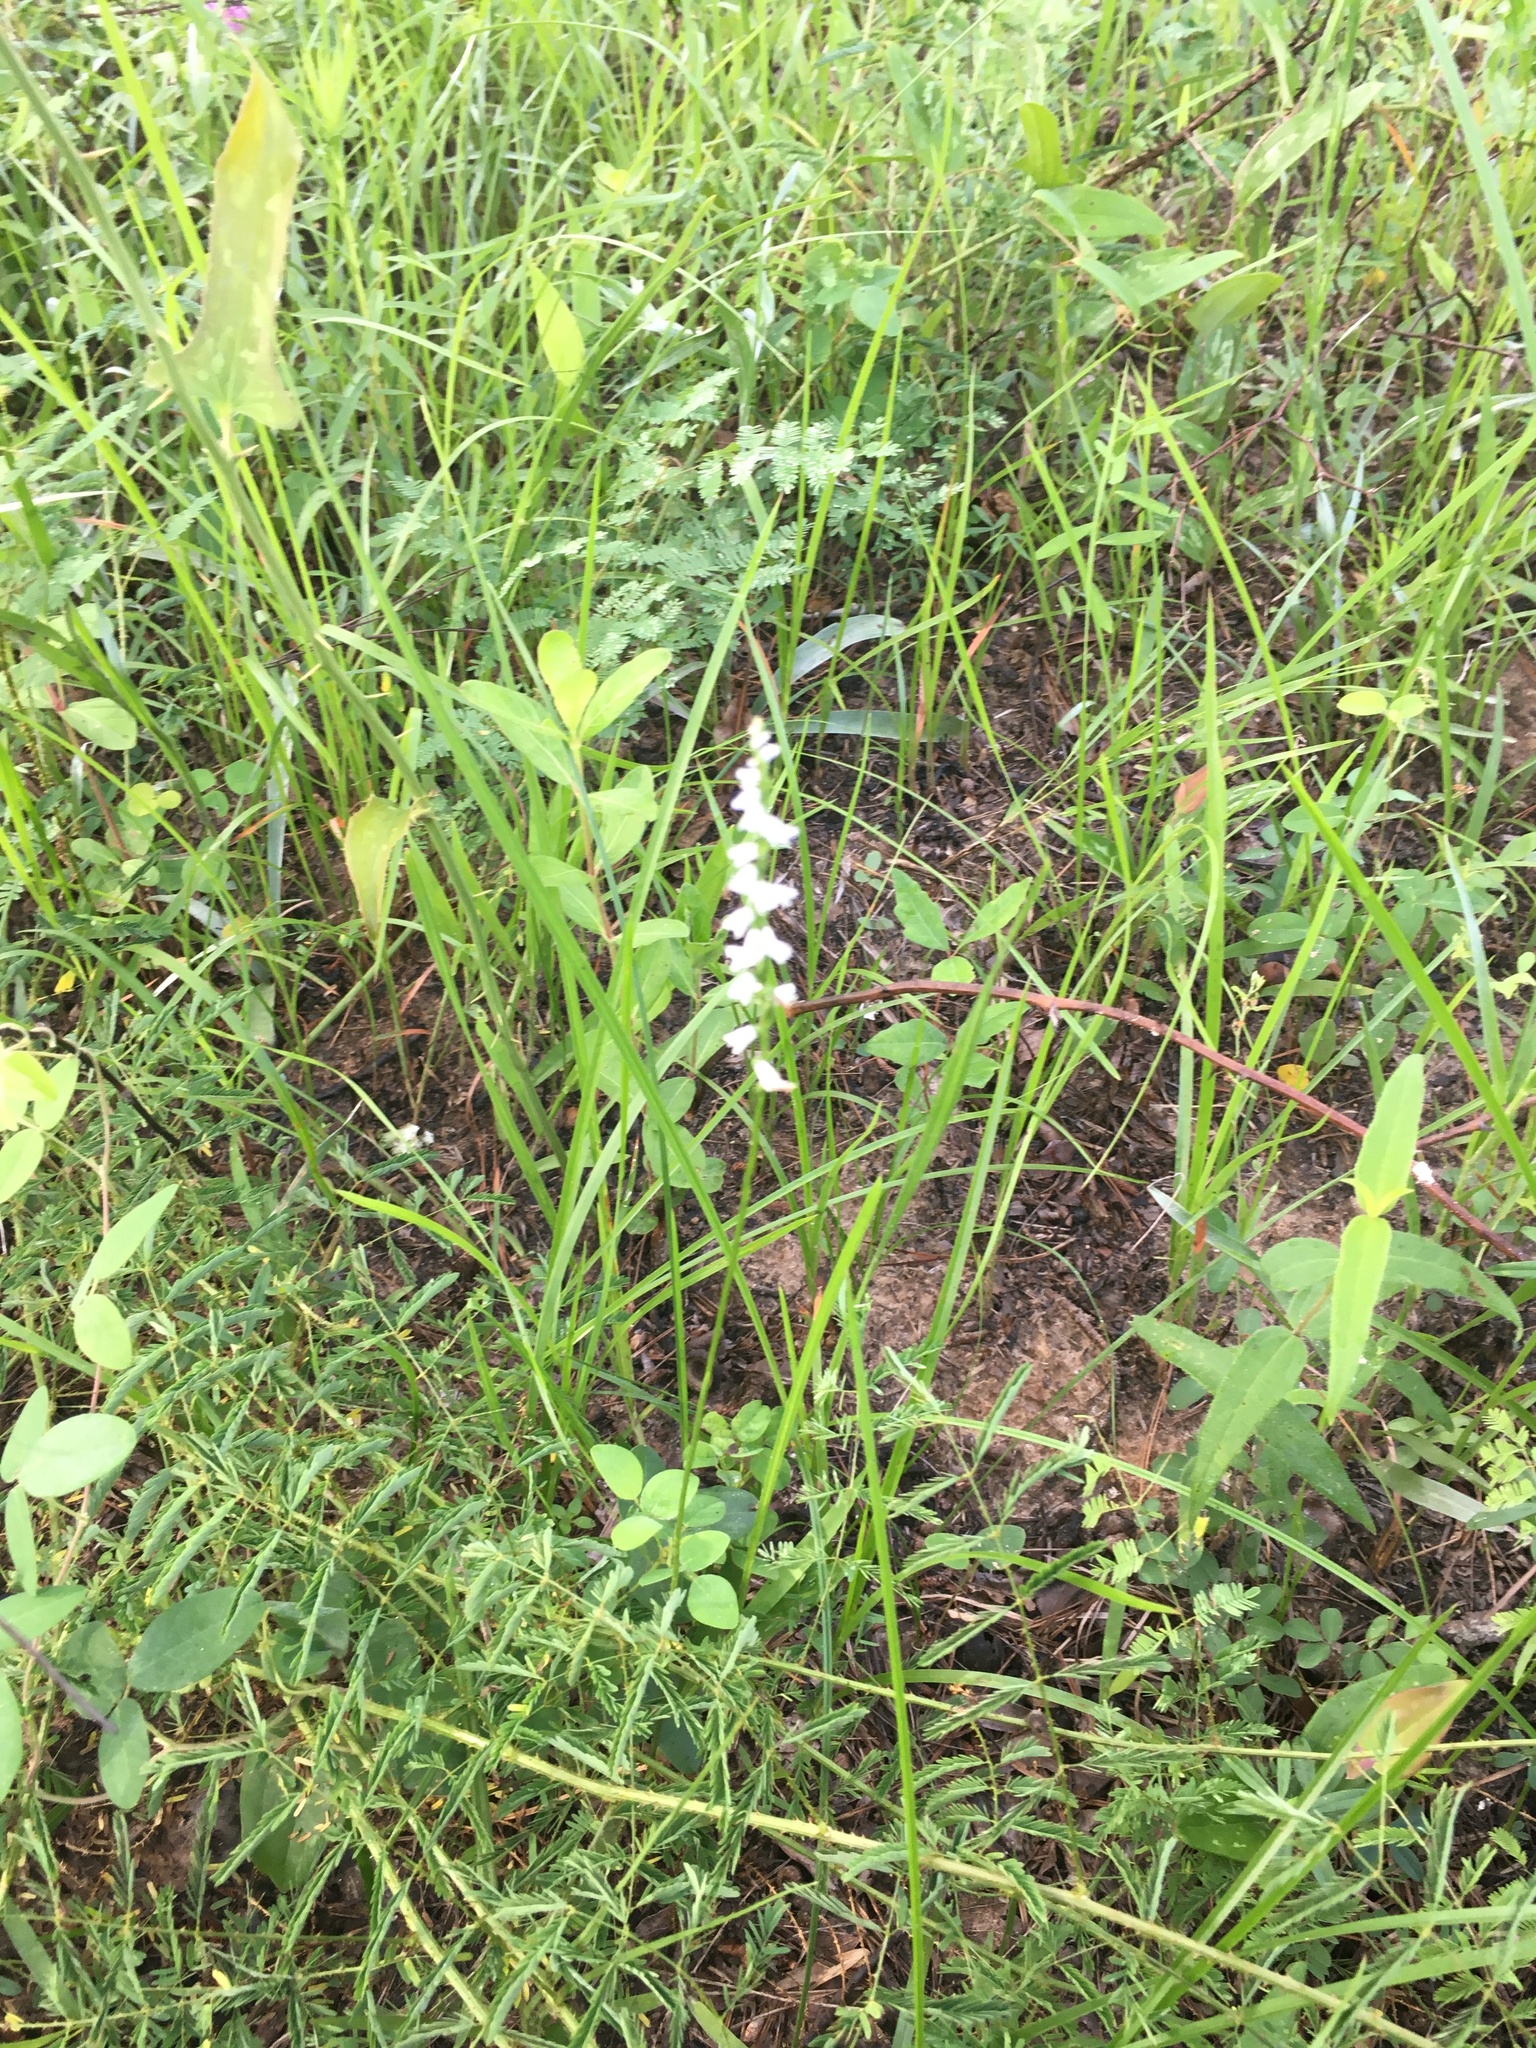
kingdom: Plantae
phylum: Tracheophyta
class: Liliopsida
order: Asparagales
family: Orchidaceae
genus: Spiranthes
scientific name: Spiranthes tuberosa
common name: Little ladies'-tresses
